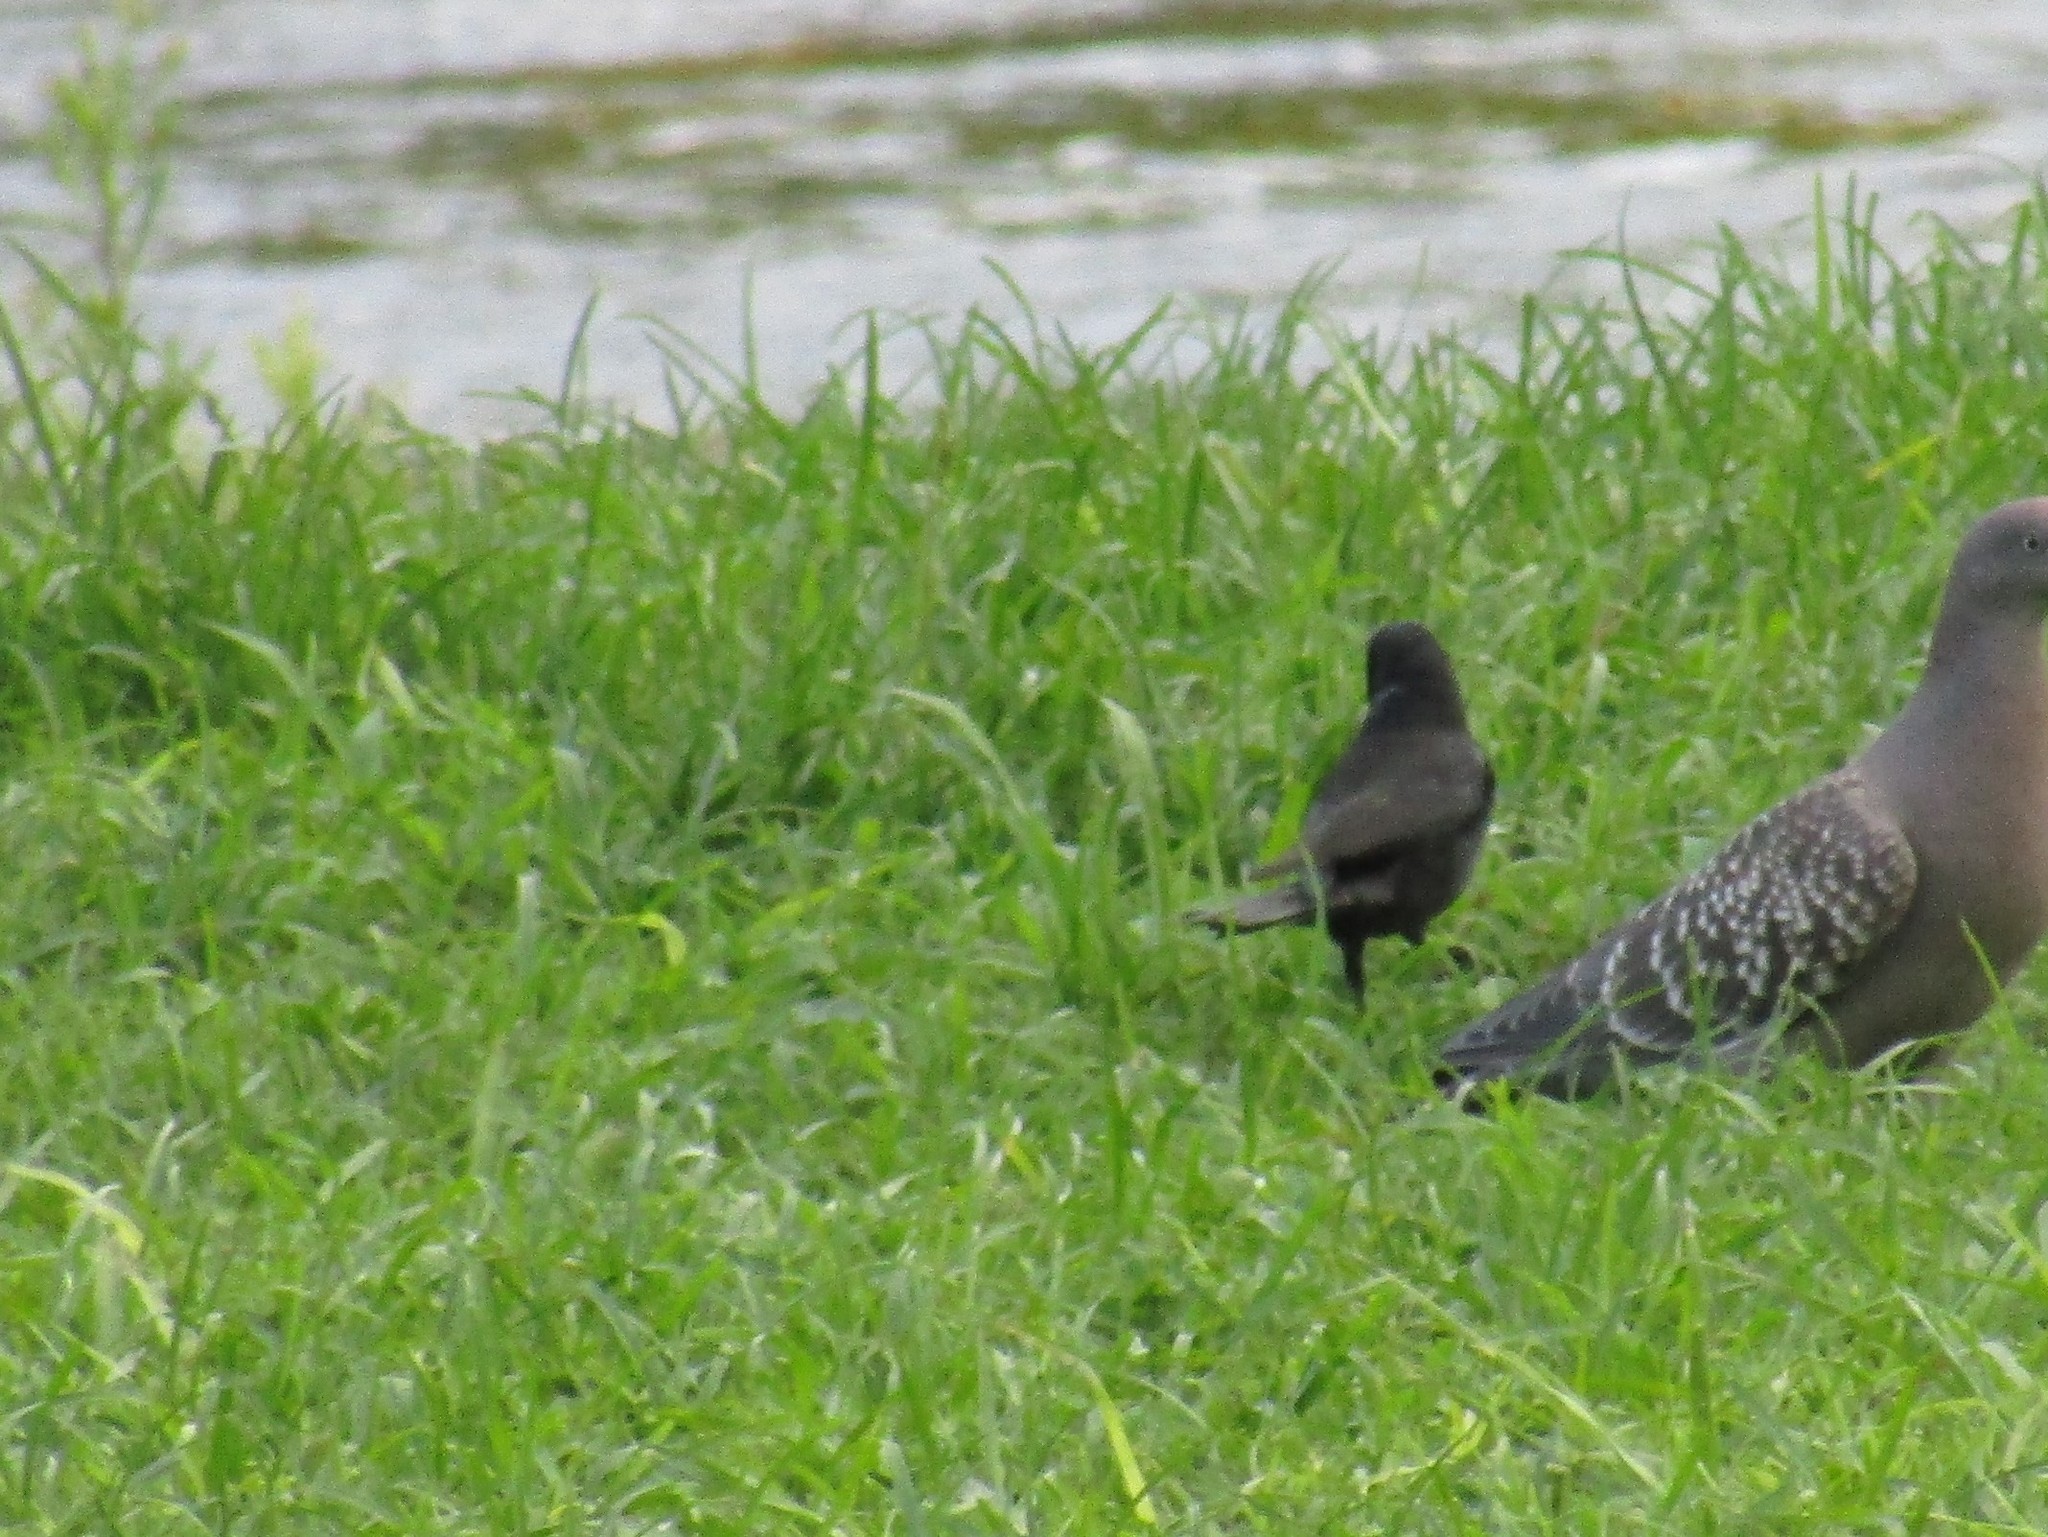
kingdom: Animalia
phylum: Chordata
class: Aves
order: Passeriformes
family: Icteridae
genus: Molothrus
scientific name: Molothrus bonariensis
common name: Shiny cowbird
